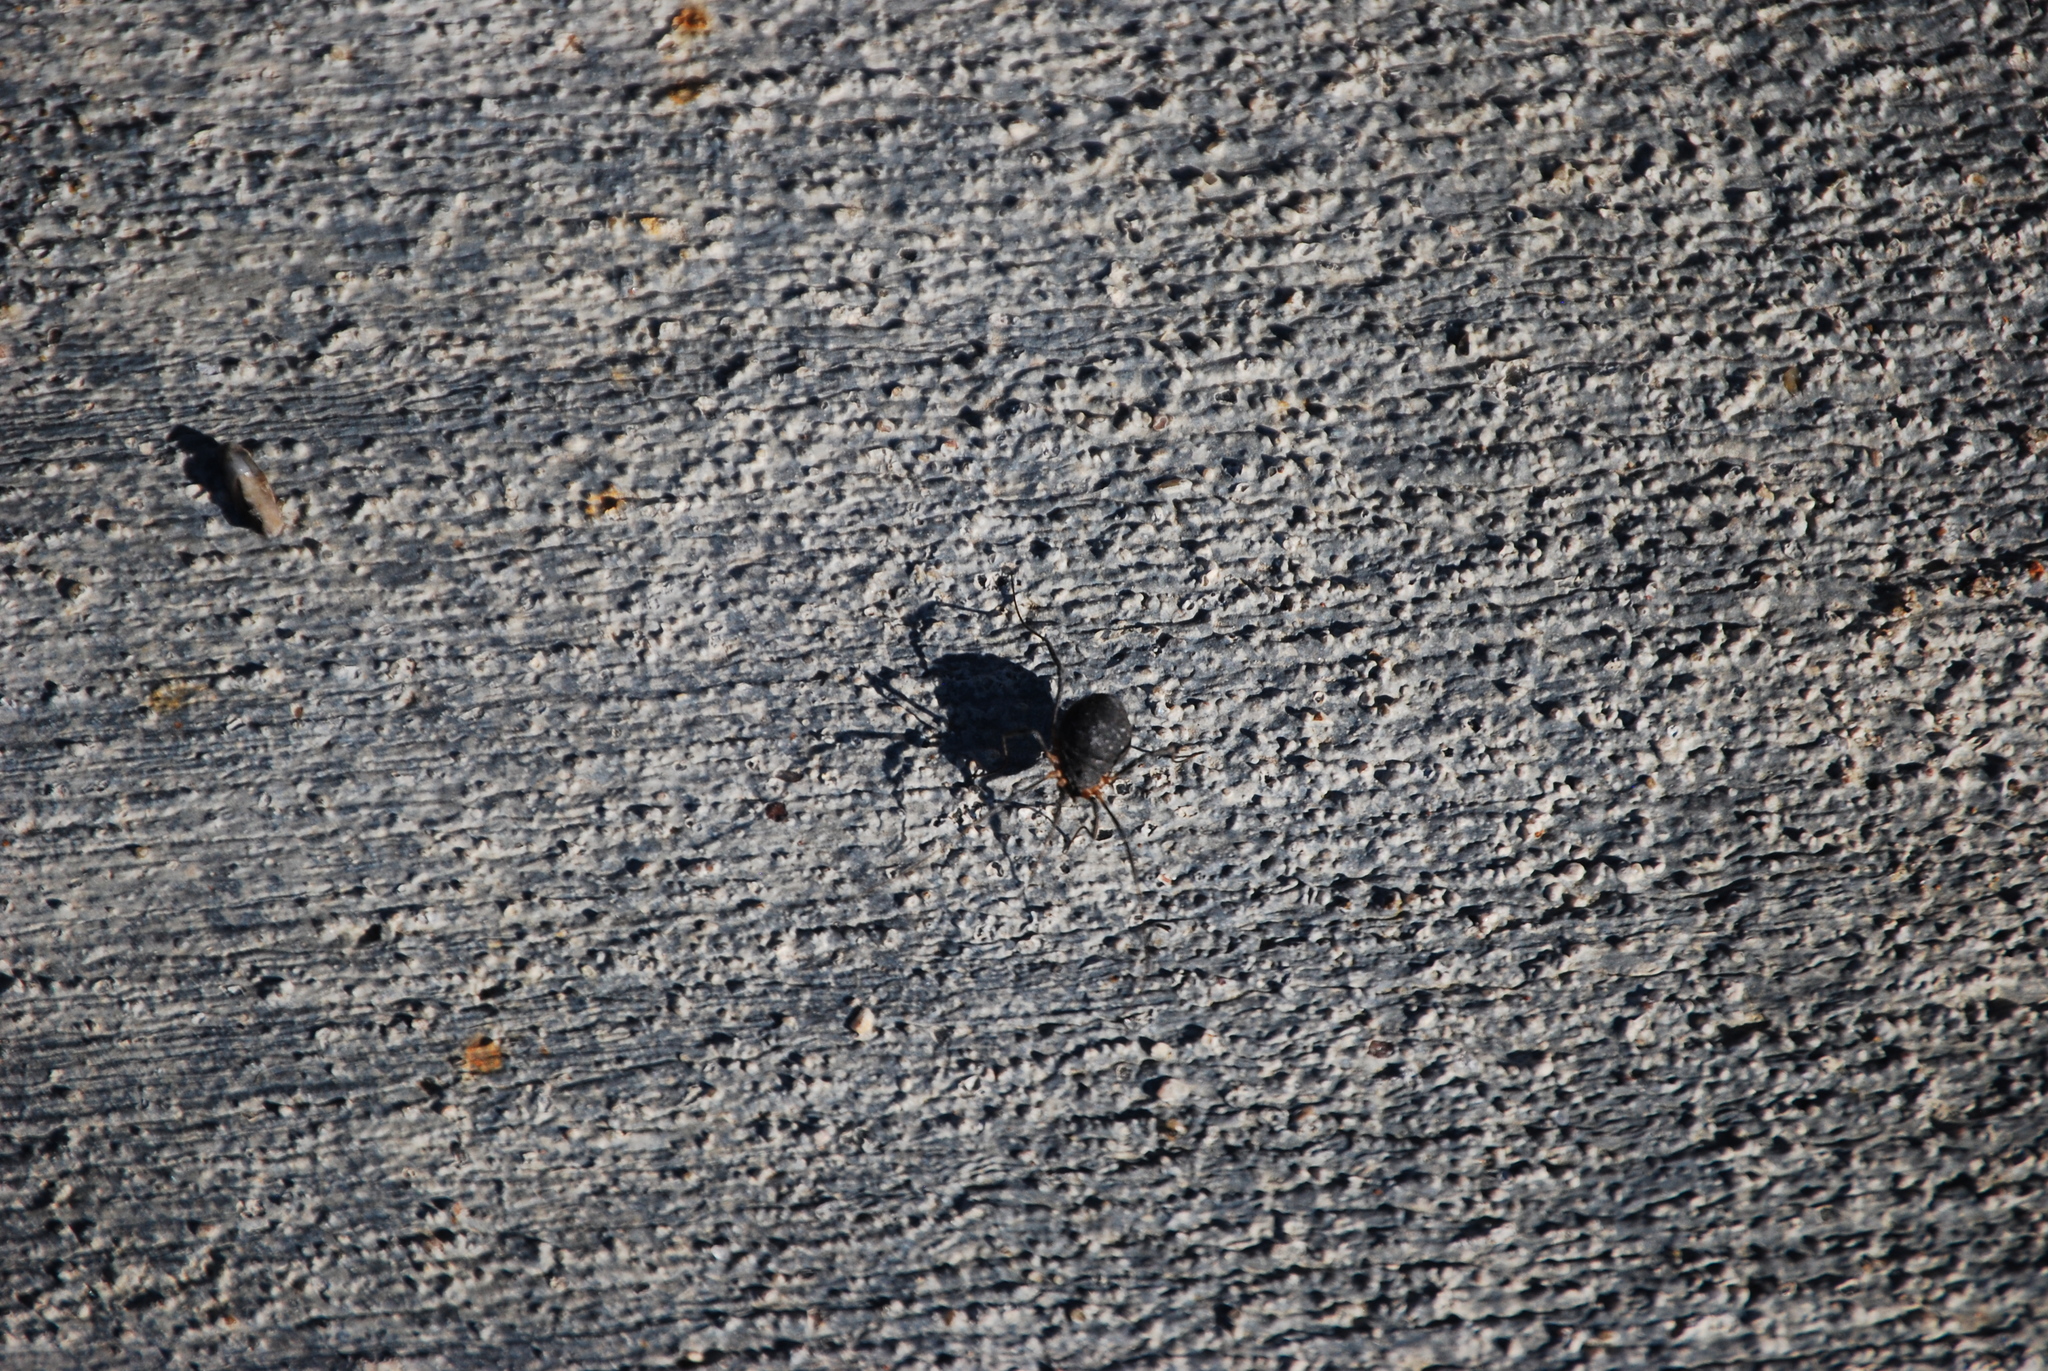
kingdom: Animalia
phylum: Arthropoda
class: Arachnida
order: Opiliones
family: Sclerosomatidae
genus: Eumesosoma
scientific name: Eumesosoma roeweri
